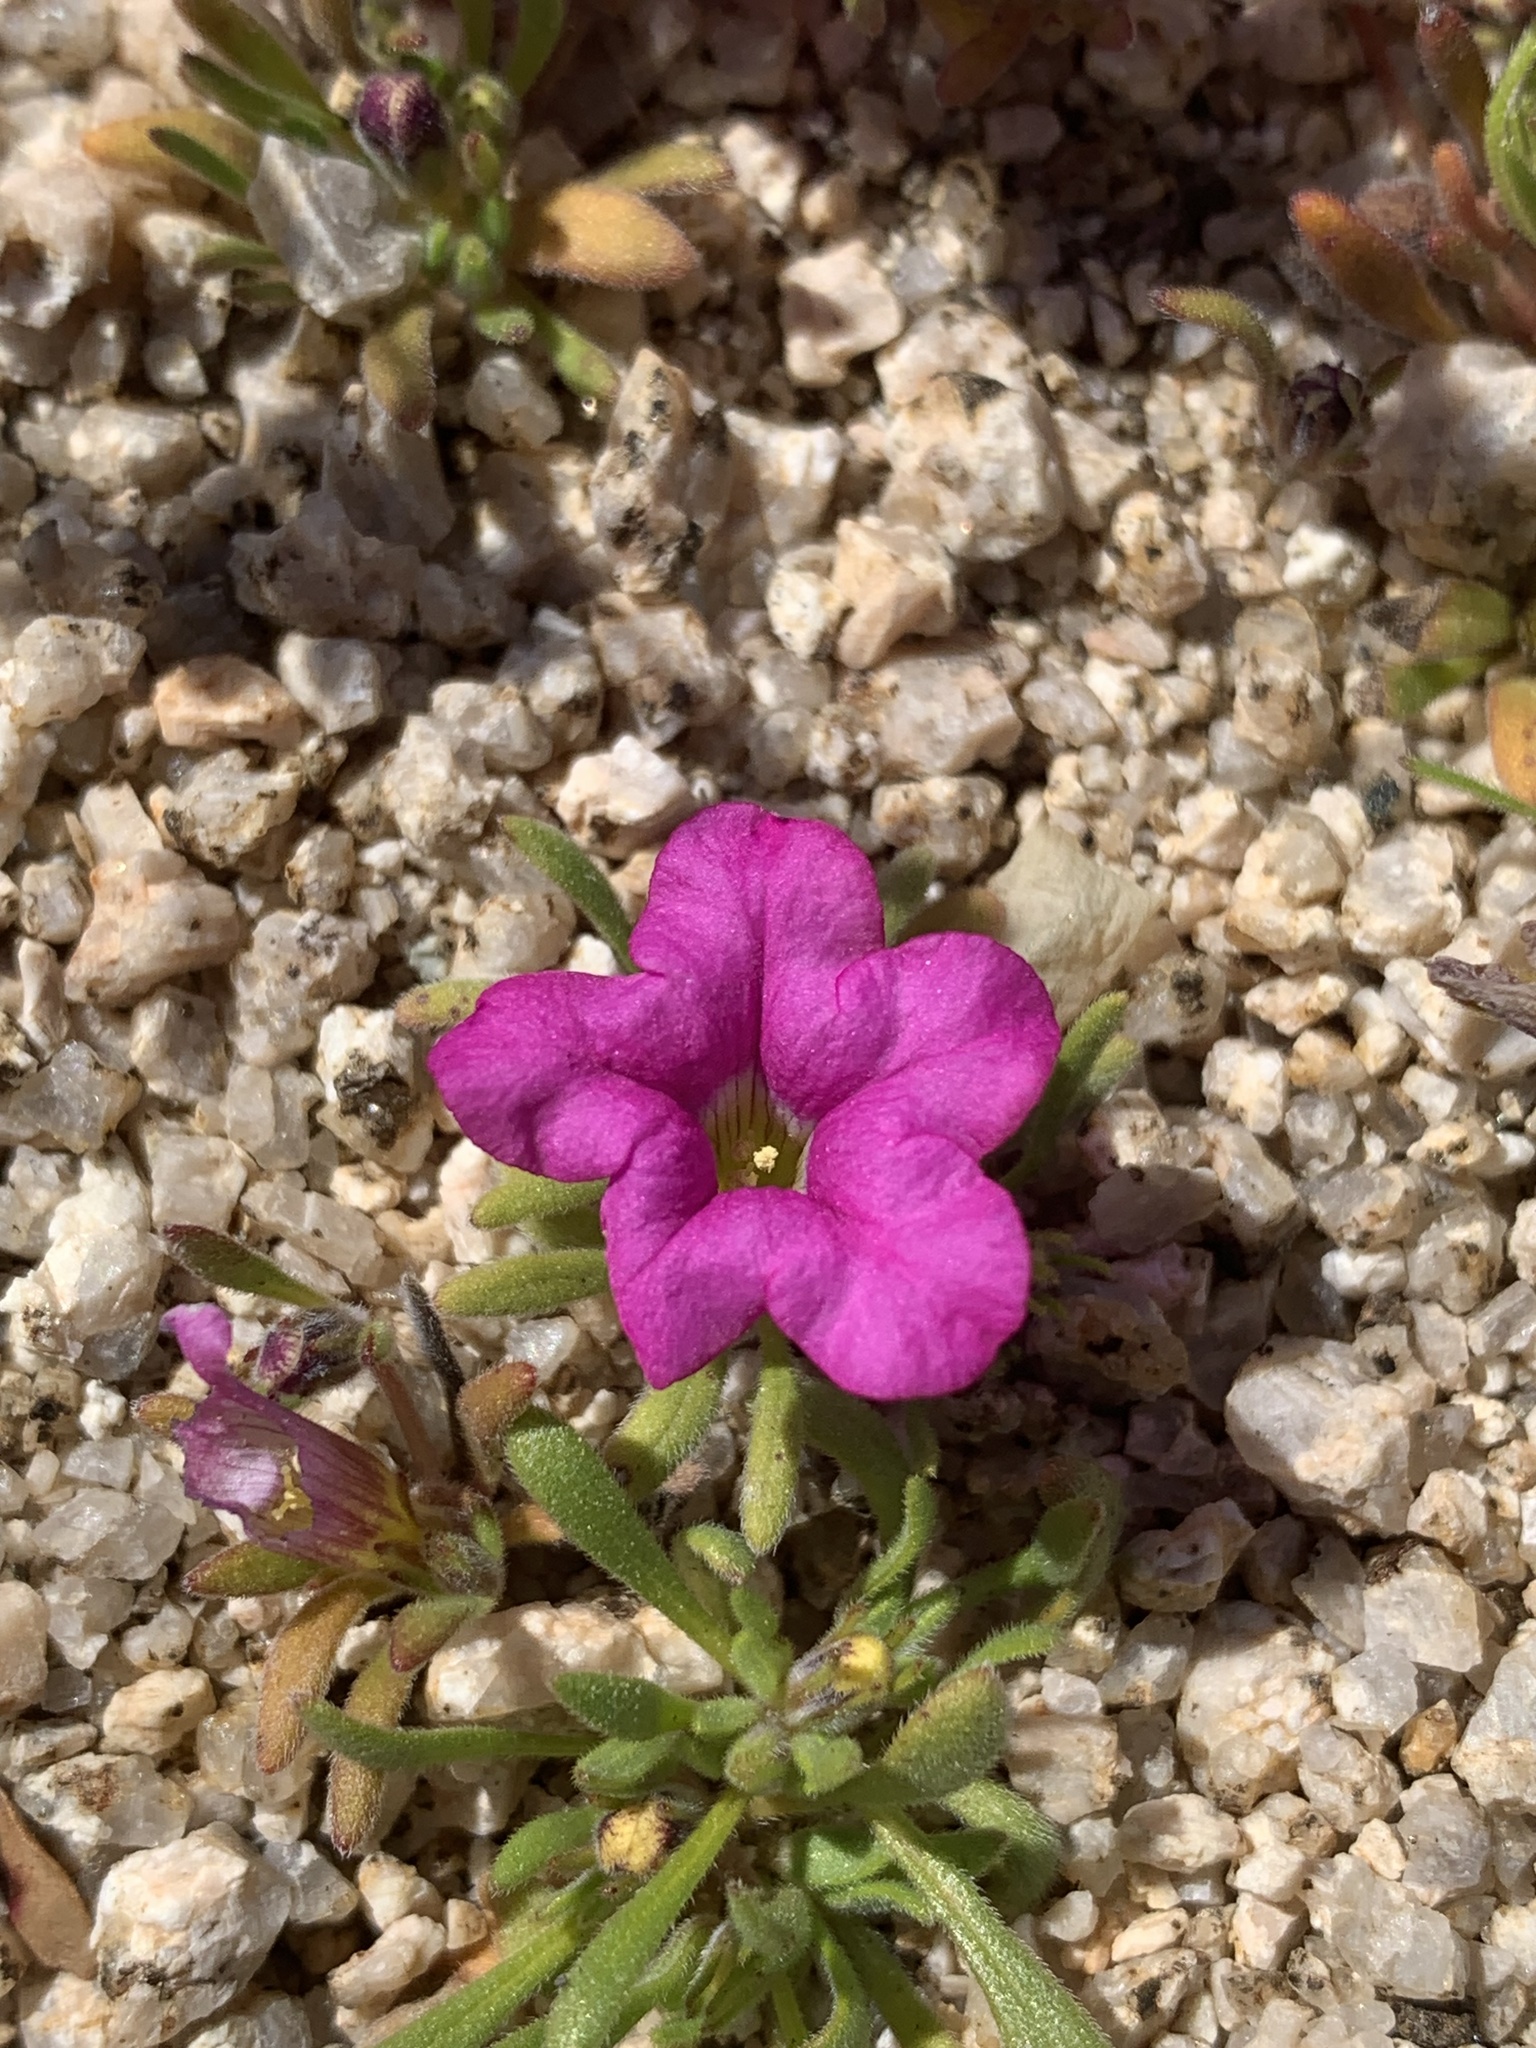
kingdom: Plantae
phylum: Tracheophyta
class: Magnoliopsida
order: Boraginales
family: Namaceae
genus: Nama
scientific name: Nama demissa
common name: Leafy nama
